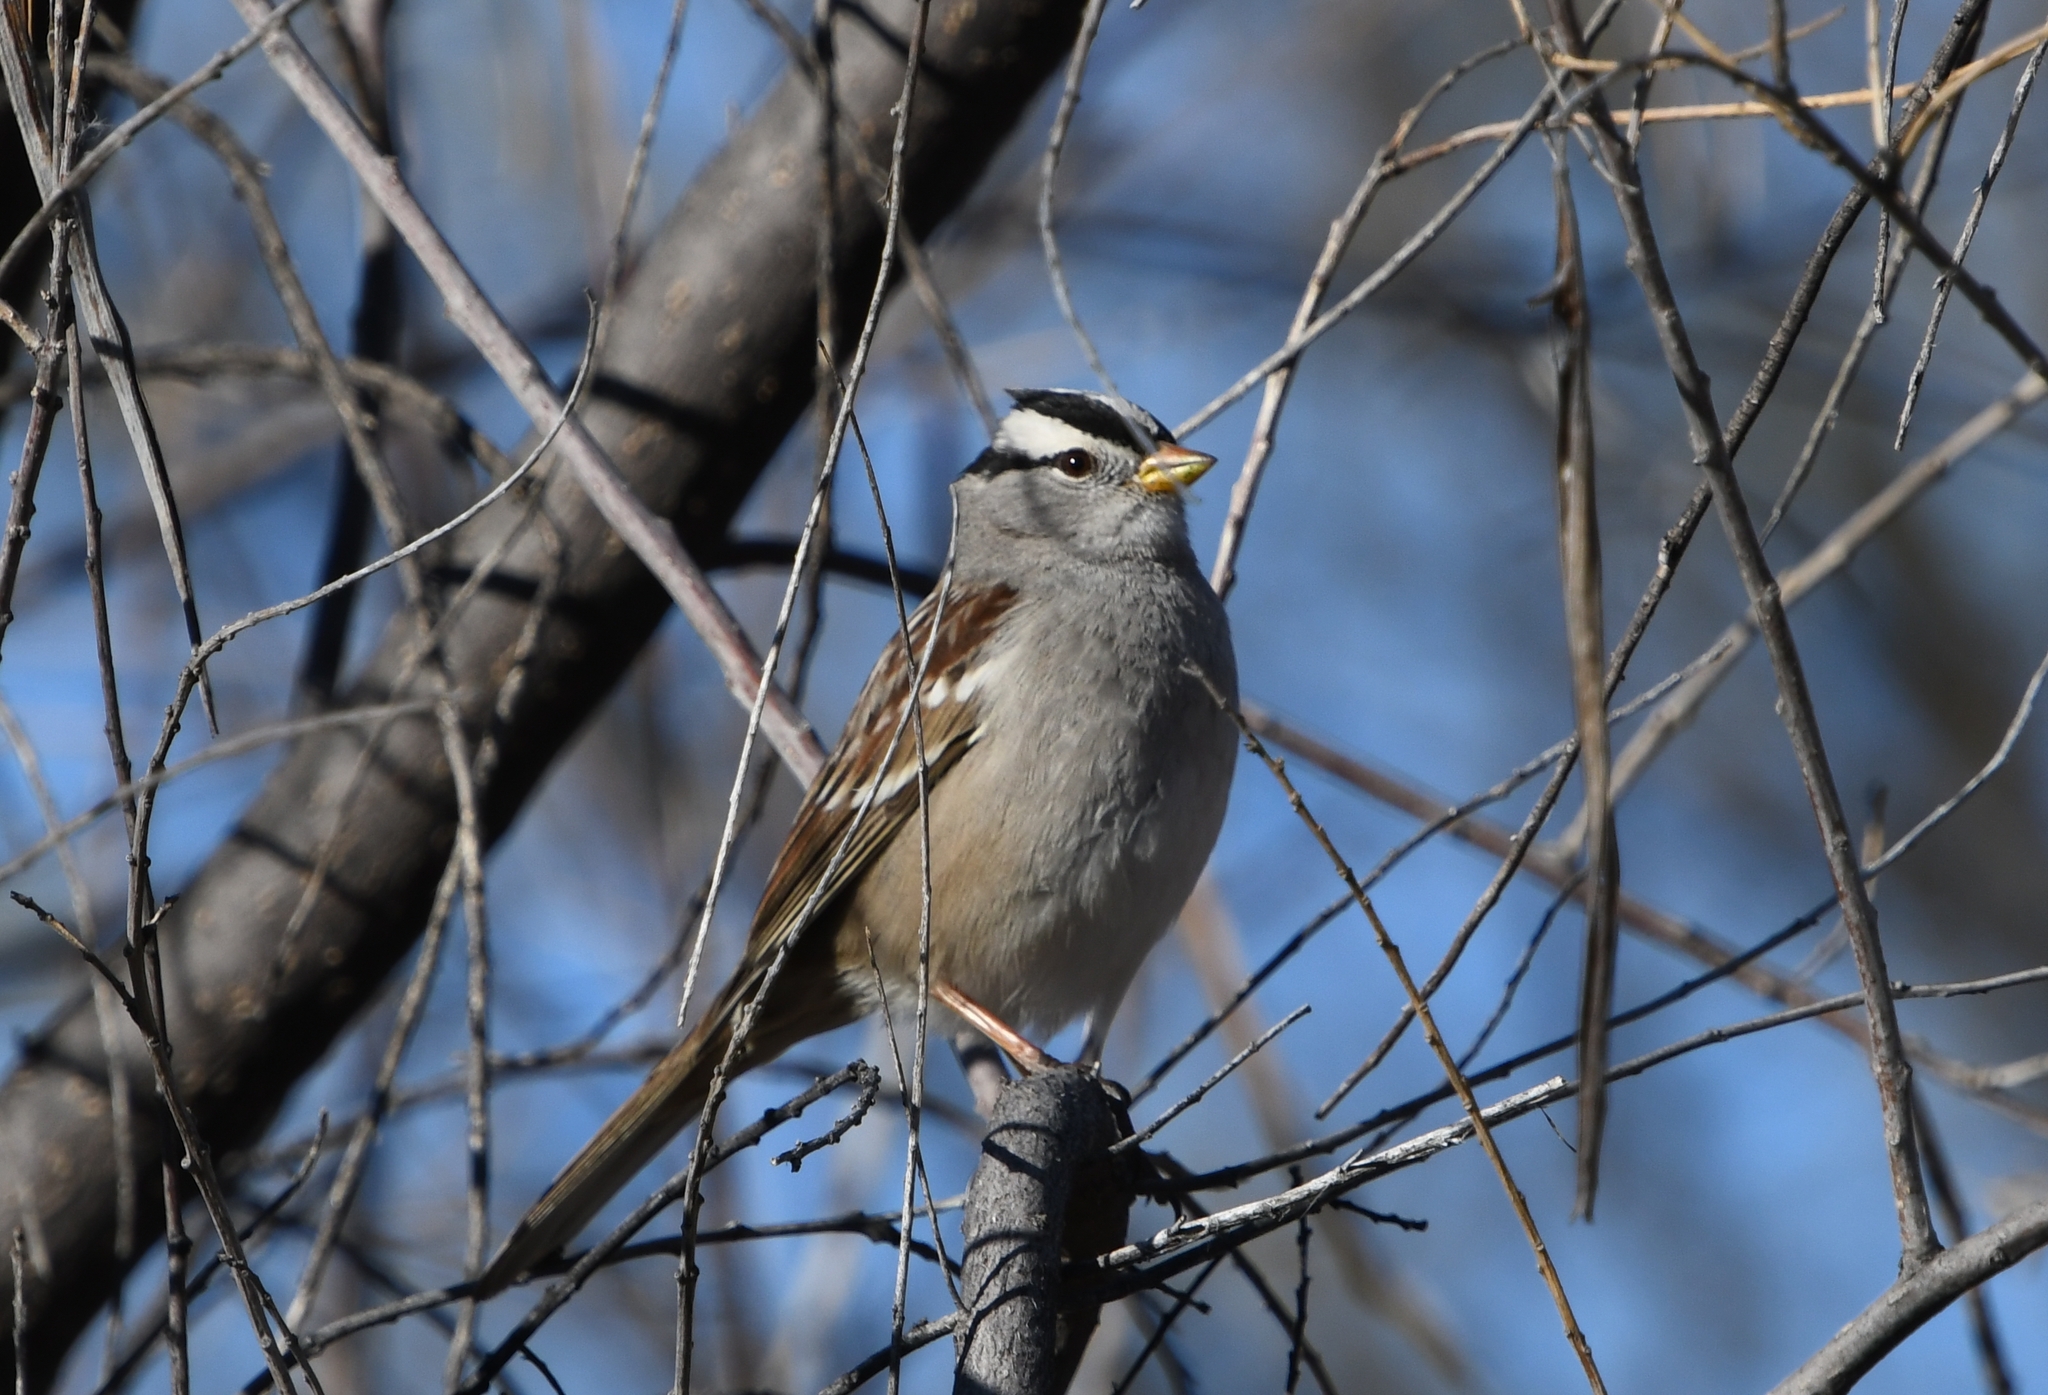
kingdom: Animalia
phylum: Chordata
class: Aves
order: Passeriformes
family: Passerellidae
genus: Zonotrichia
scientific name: Zonotrichia leucophrys
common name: White-crowned sparrow
